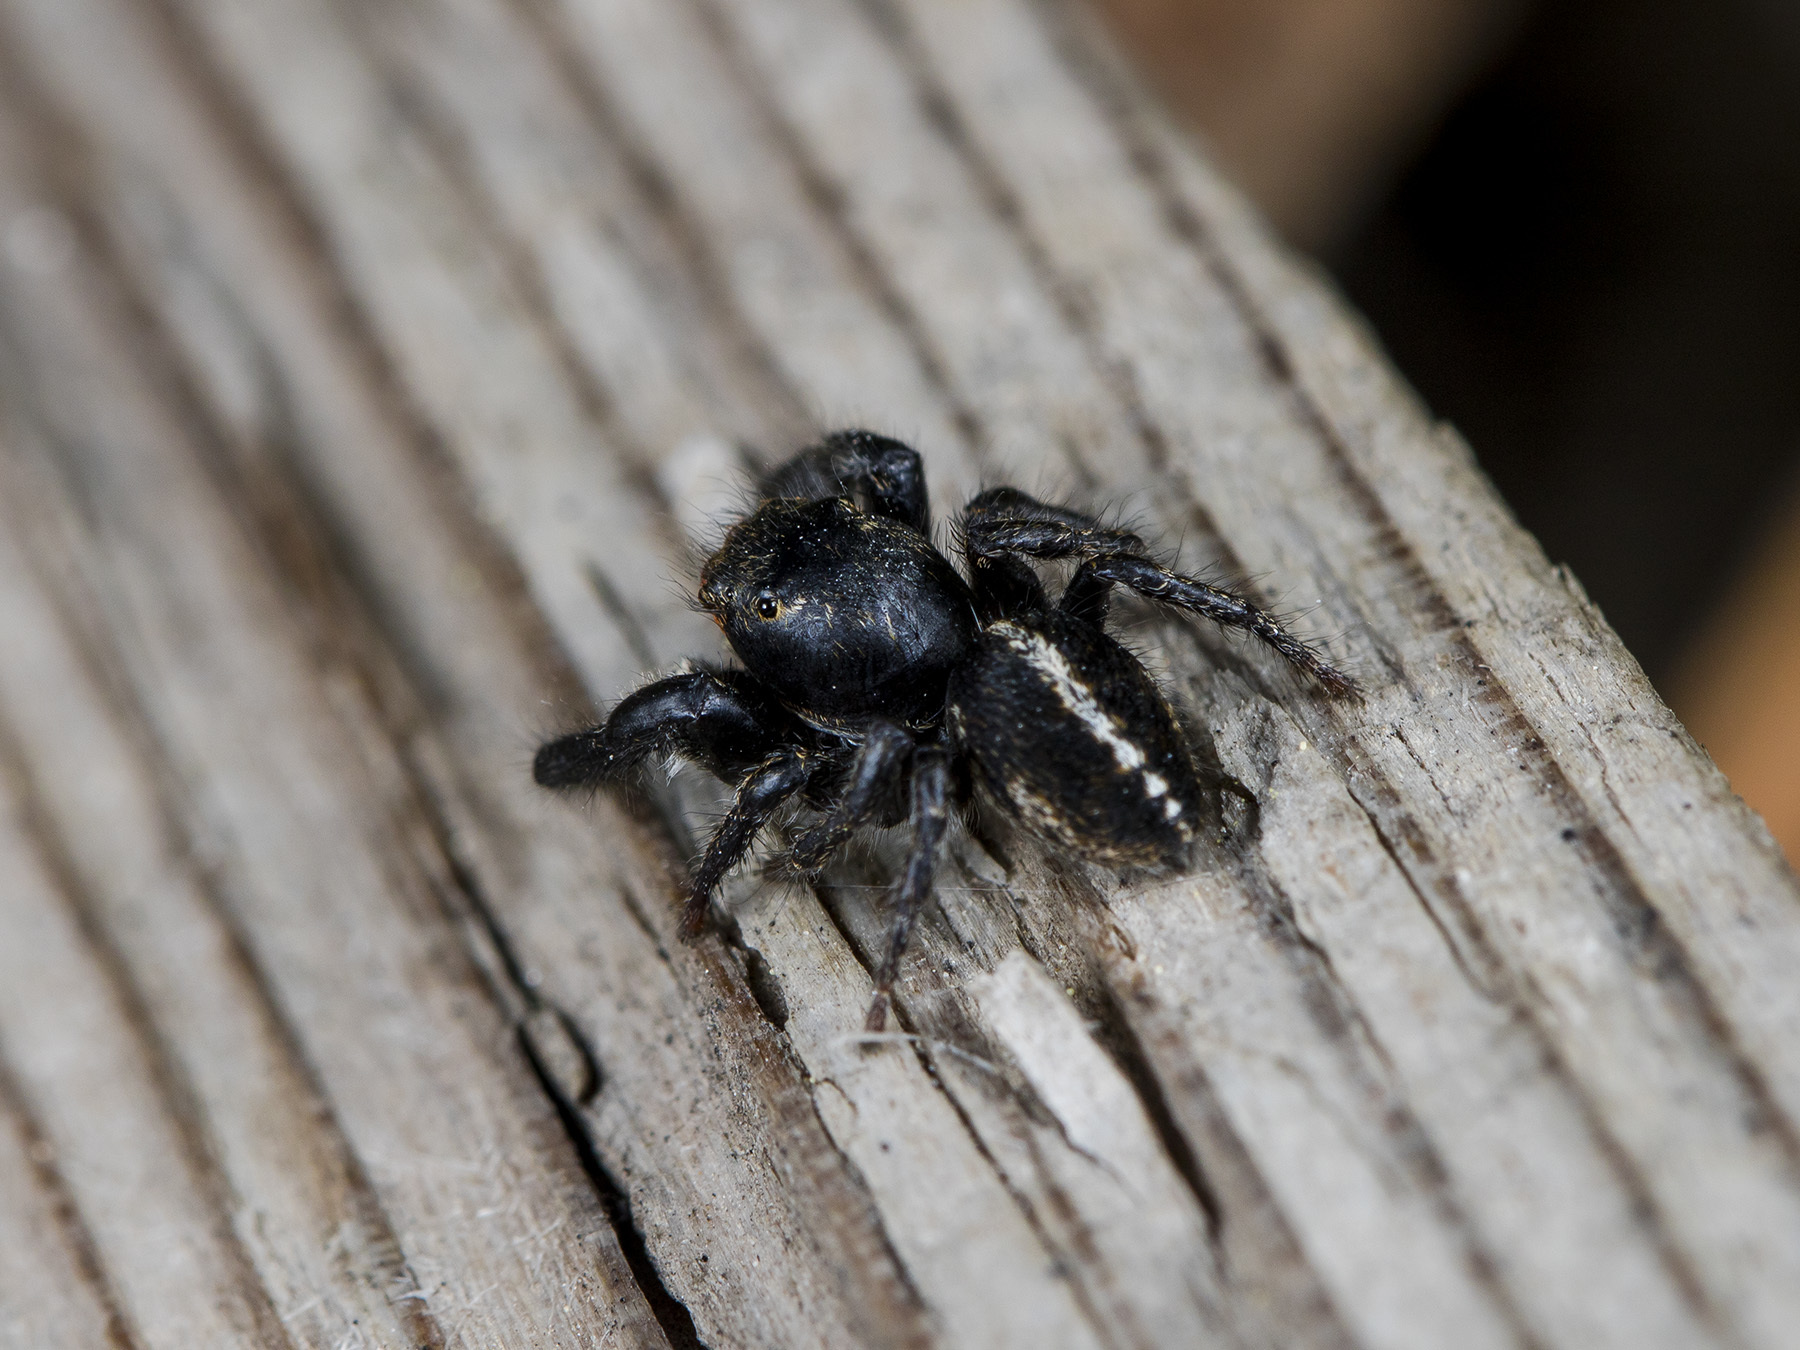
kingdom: Animalia
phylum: Arthropoda
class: Arachnida
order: Araneae
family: Salticidae
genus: Pellenes
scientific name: Pellenes seriatus
